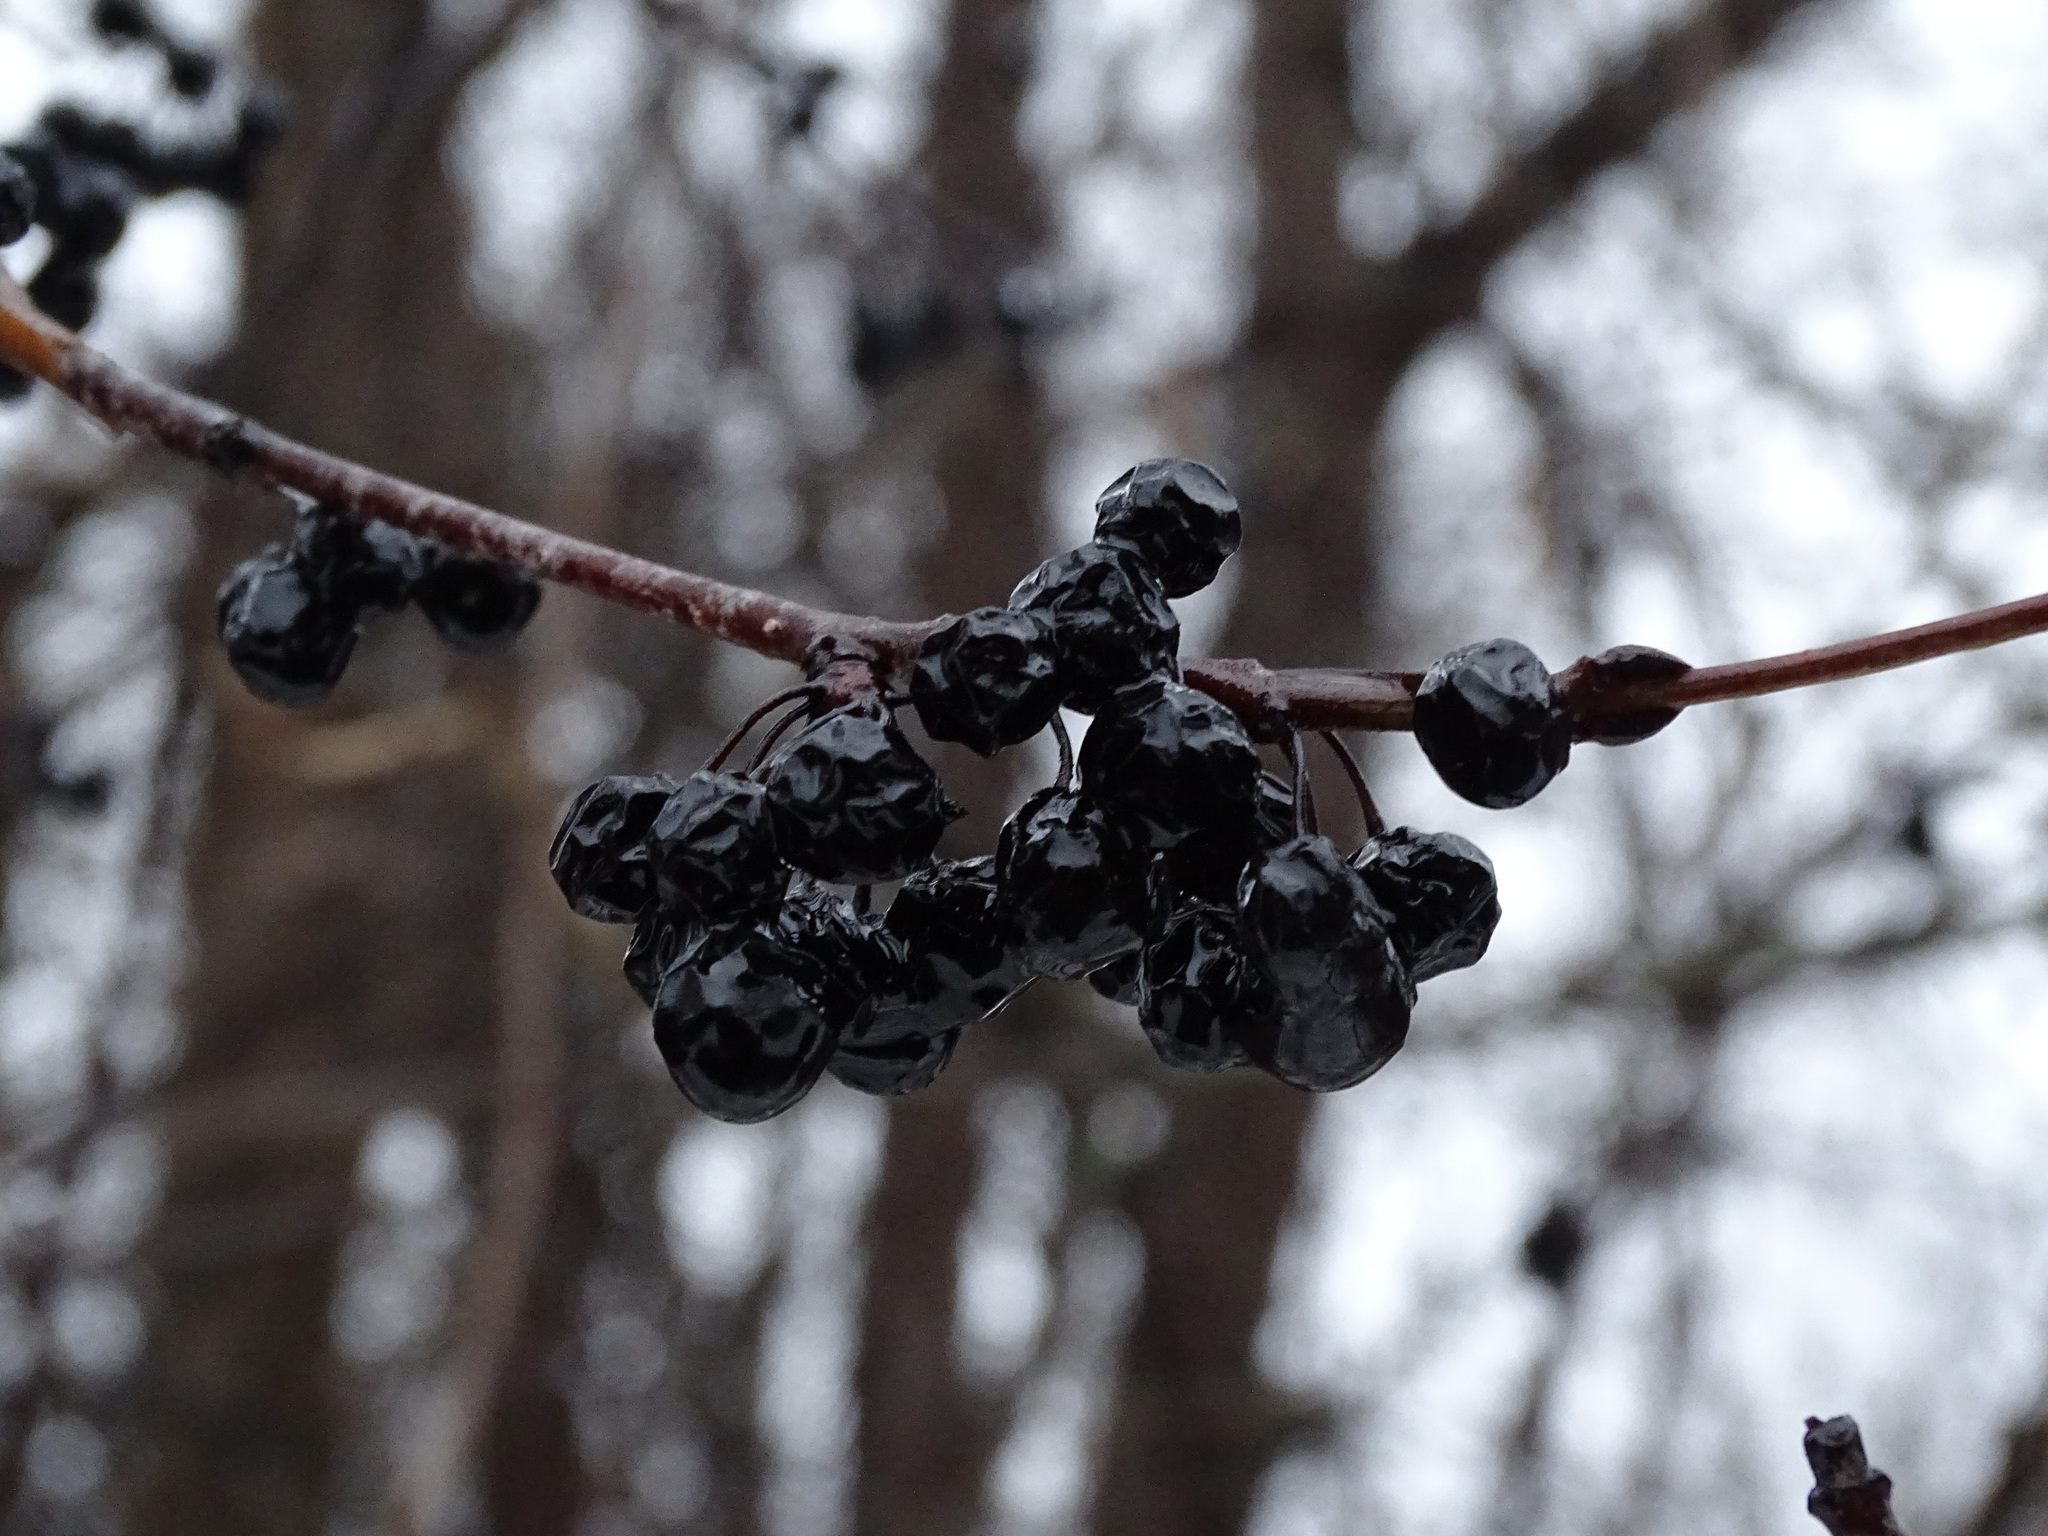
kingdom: Plantae
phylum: Tracheophyta
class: Magnoliopsida
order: Rosales
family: Rhamnaceae
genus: Rhamnus
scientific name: Rhamnus cathartica
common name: Common buckthorn
